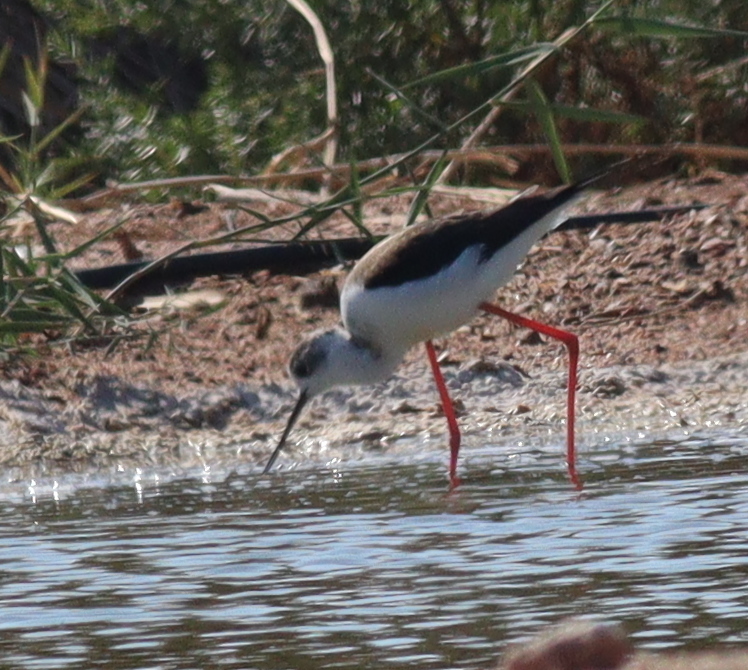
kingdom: Animalia
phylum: Chordata
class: Aves
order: Charadriiformes
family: Recurvirostridae
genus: Himantopus
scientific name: Himantopus himantopus
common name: Black-winged stilt
